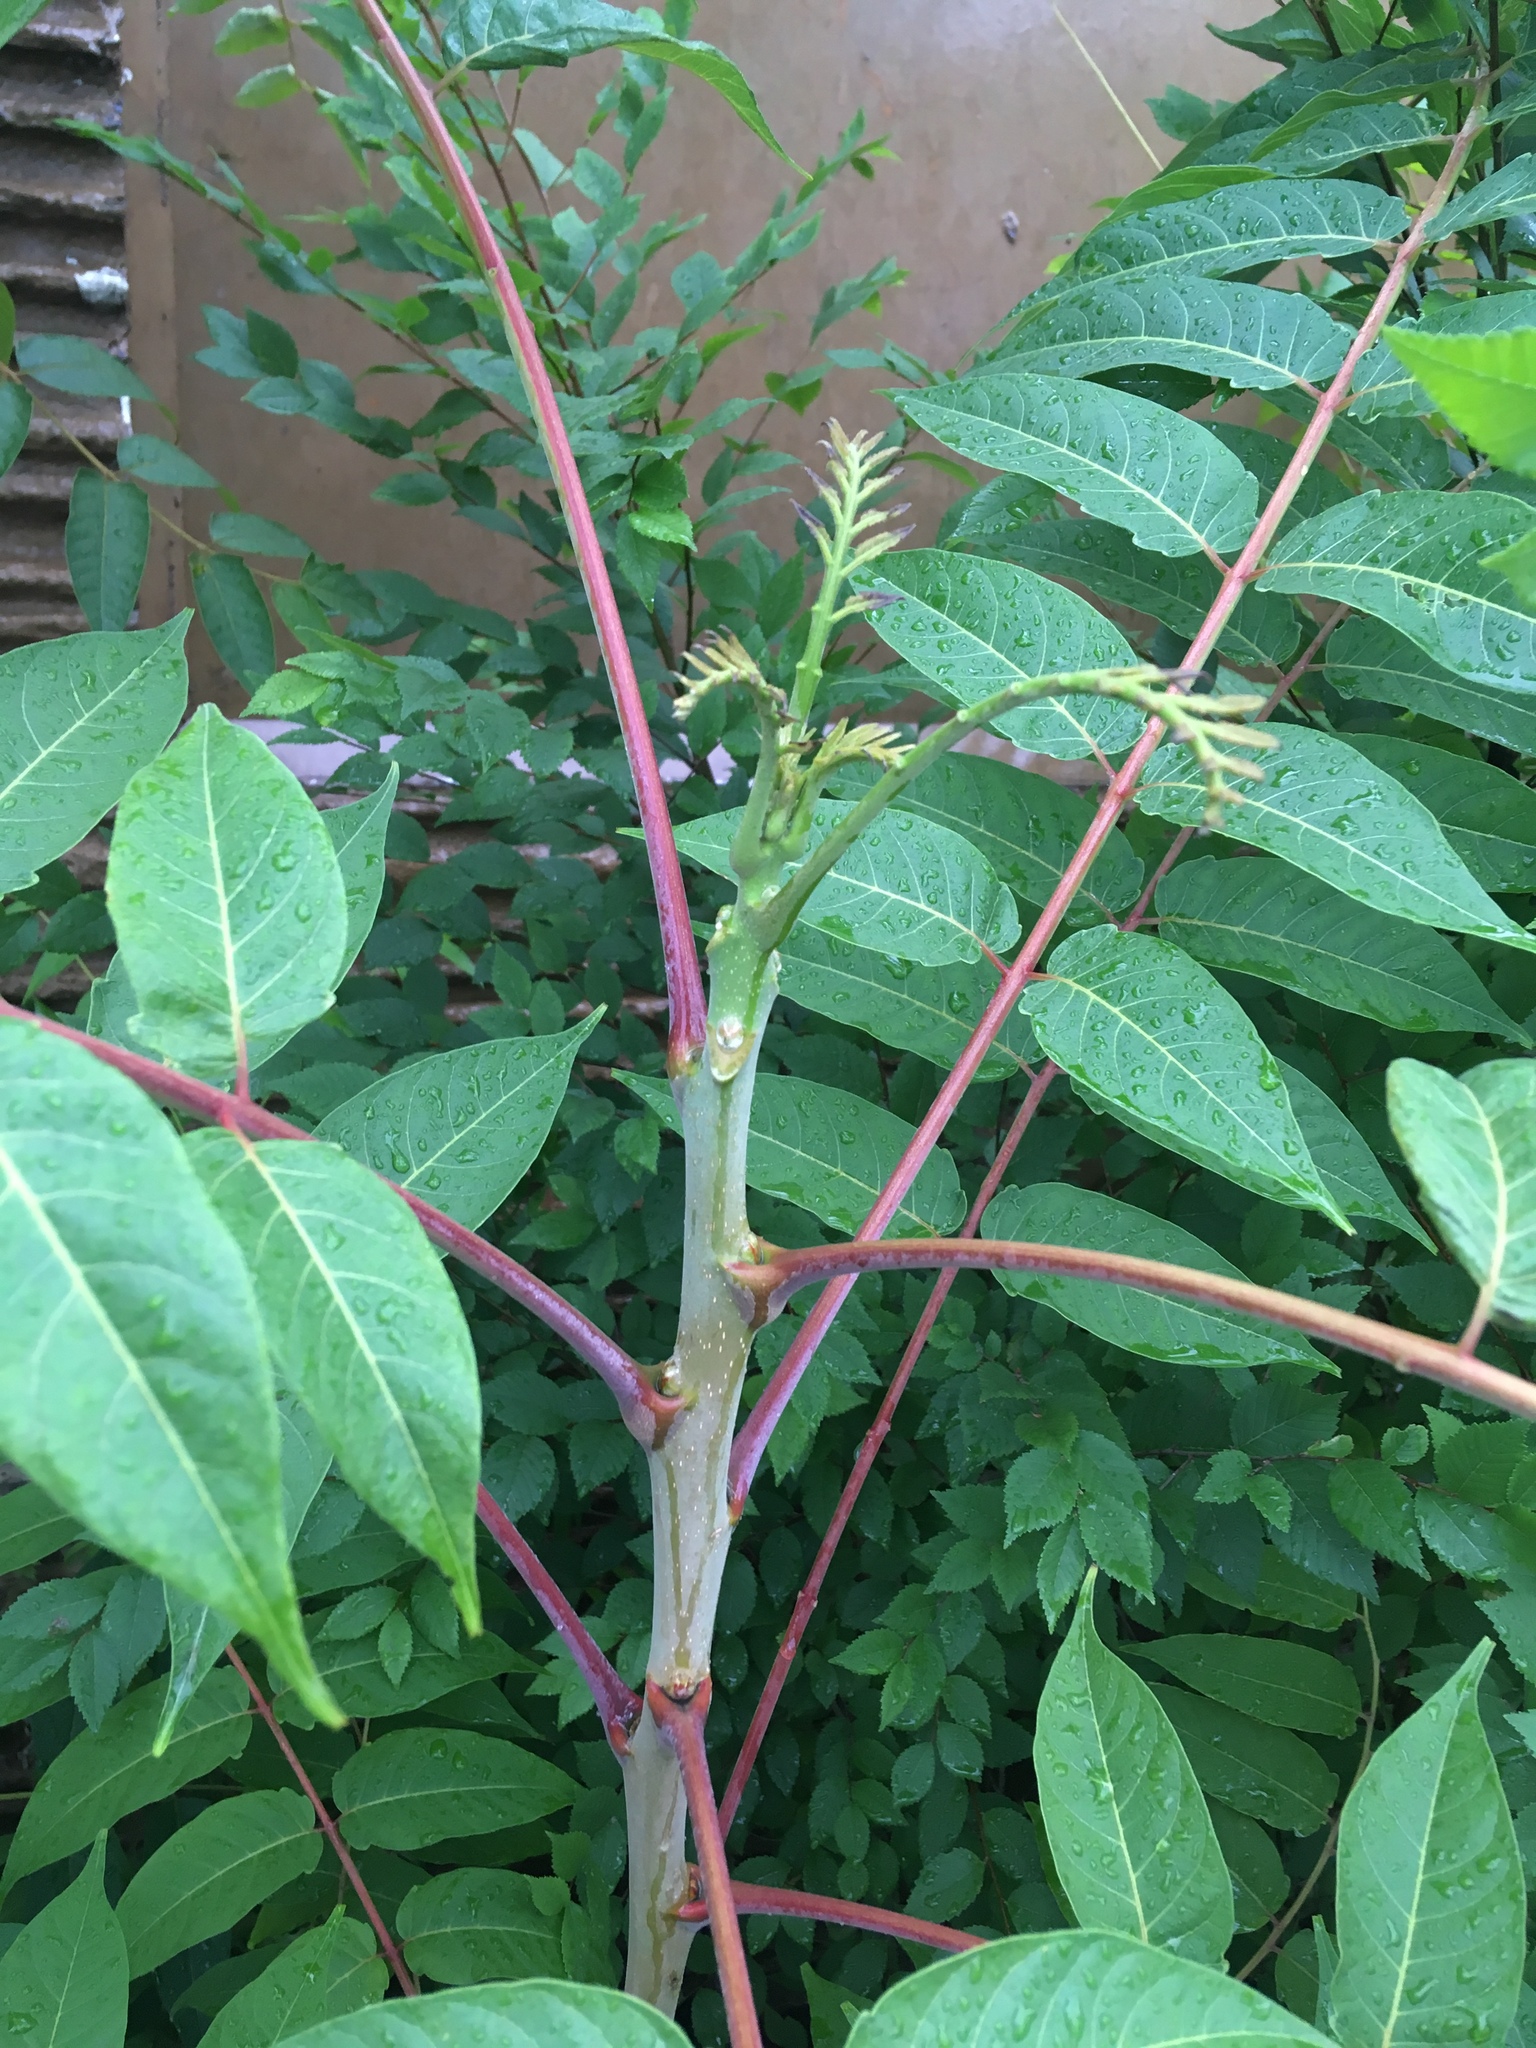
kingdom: Plantae
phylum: Tracheophyta
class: Magnoliopsida
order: Sapindales
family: Simaroubaceae
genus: Ailanthus
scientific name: Ailanthus altissima
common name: Tree-of-heaven
